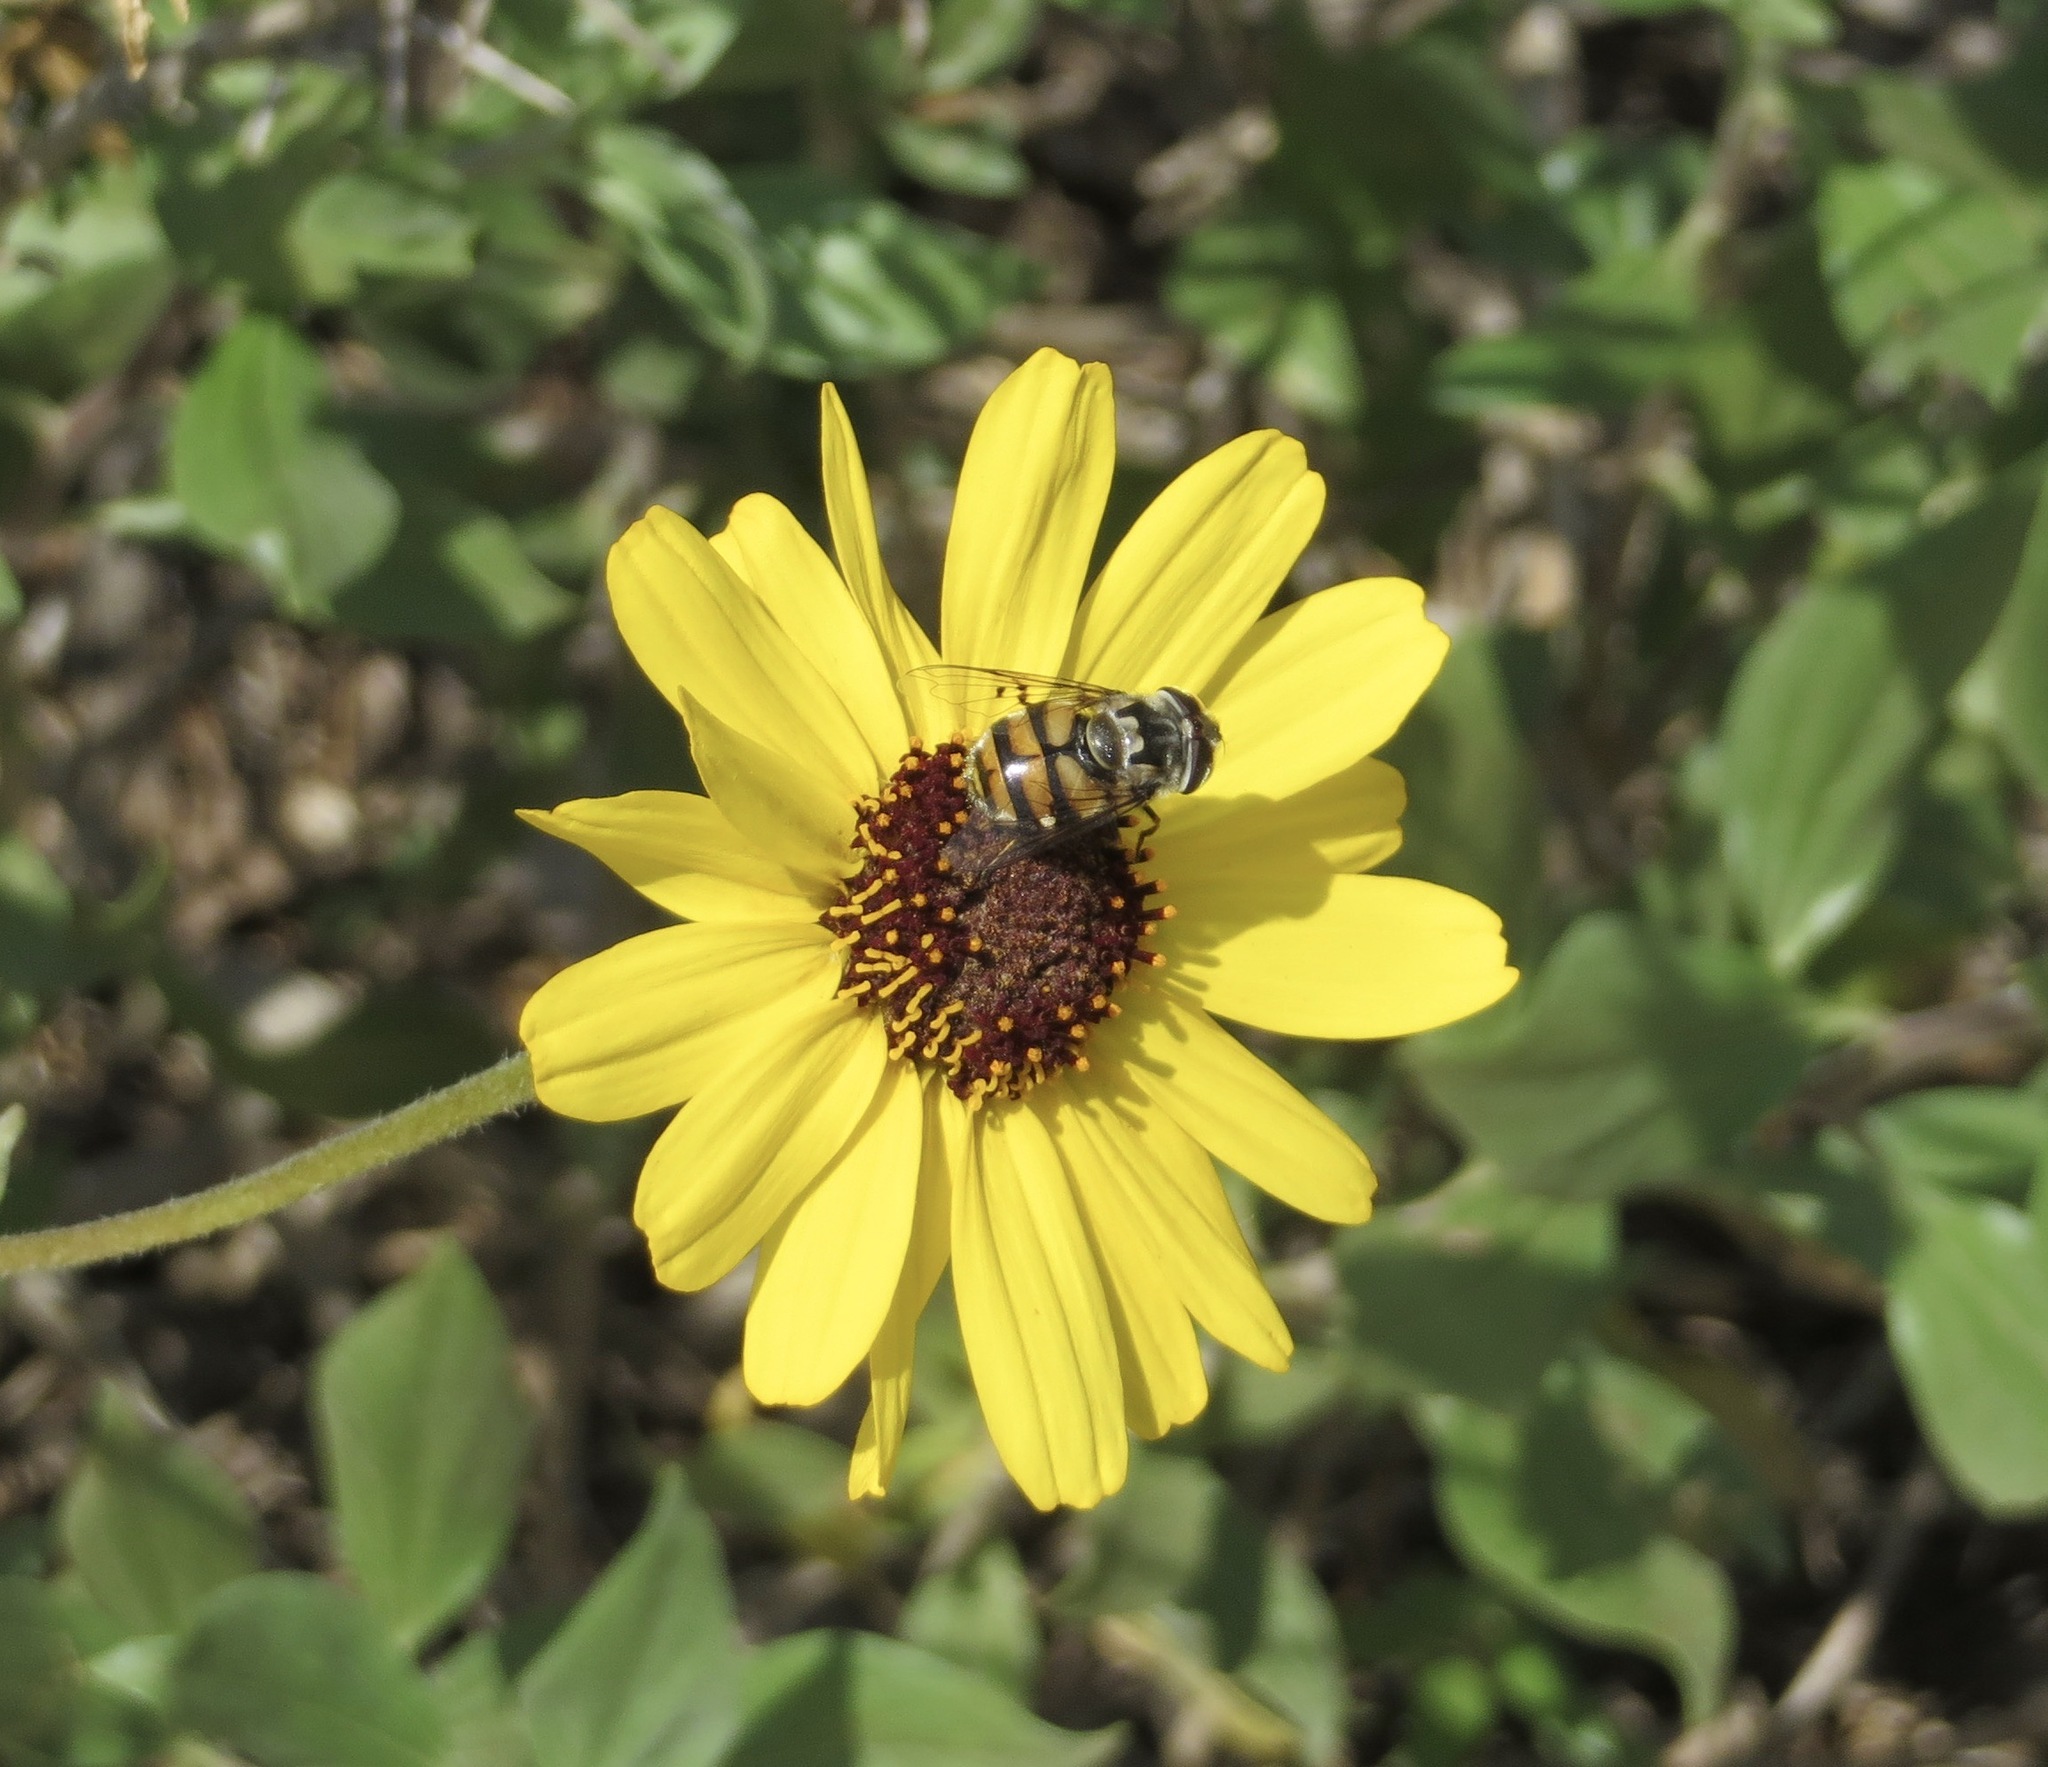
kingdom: Animalia
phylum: Arthropoda
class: Insecta
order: Diptera
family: Syrphidae
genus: Copestylum
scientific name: Copestylum avidum
